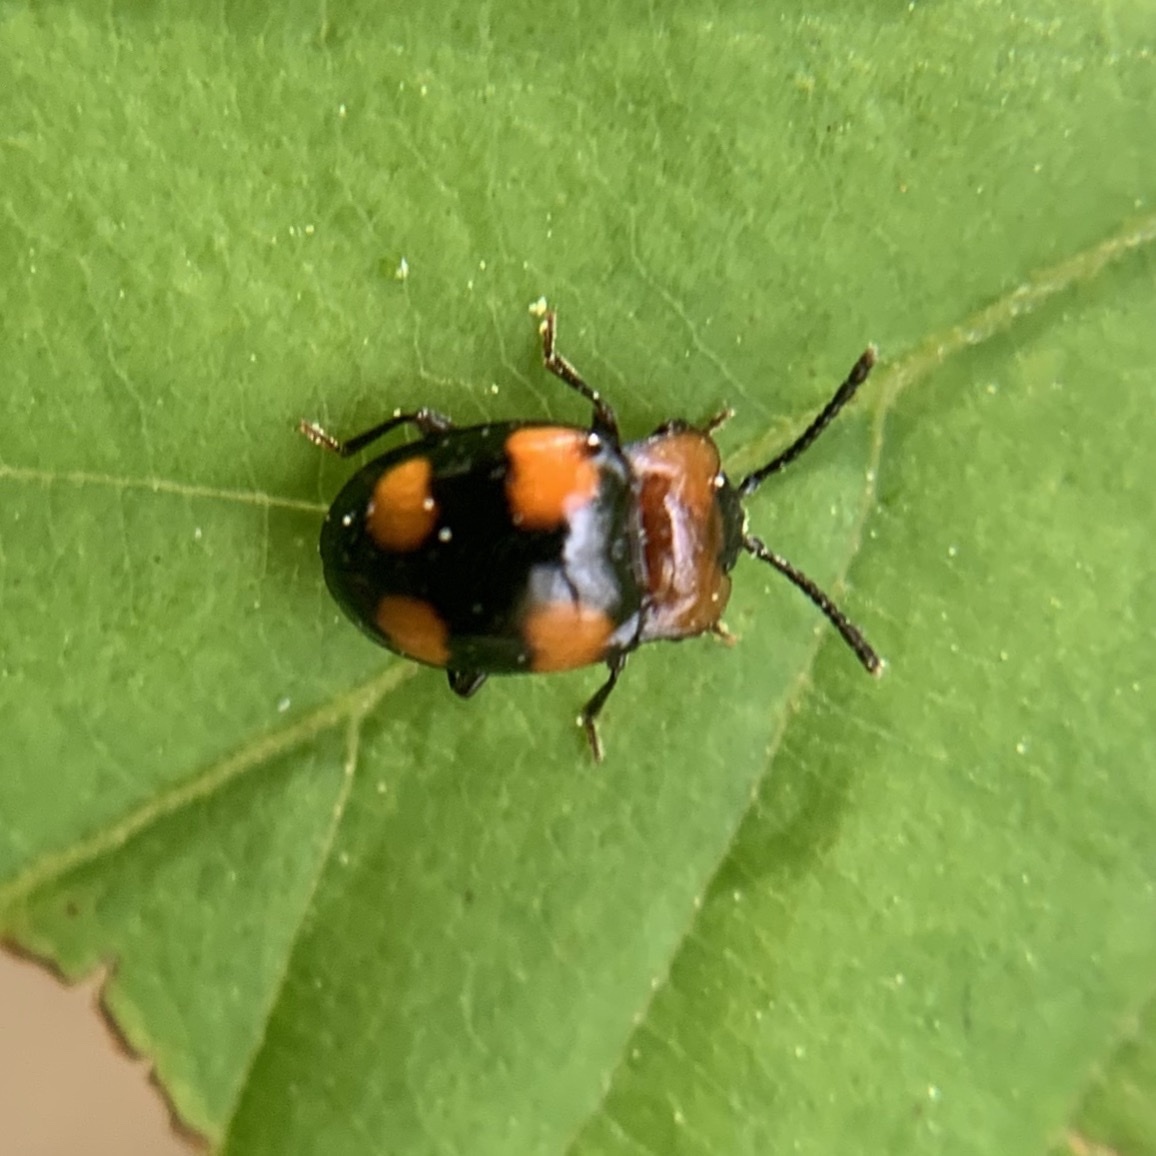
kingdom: Animalia
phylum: Arthropoda
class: Insecta
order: Coleoptera
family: Endomychidae
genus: Mycetina
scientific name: Mycetina perpulchra
